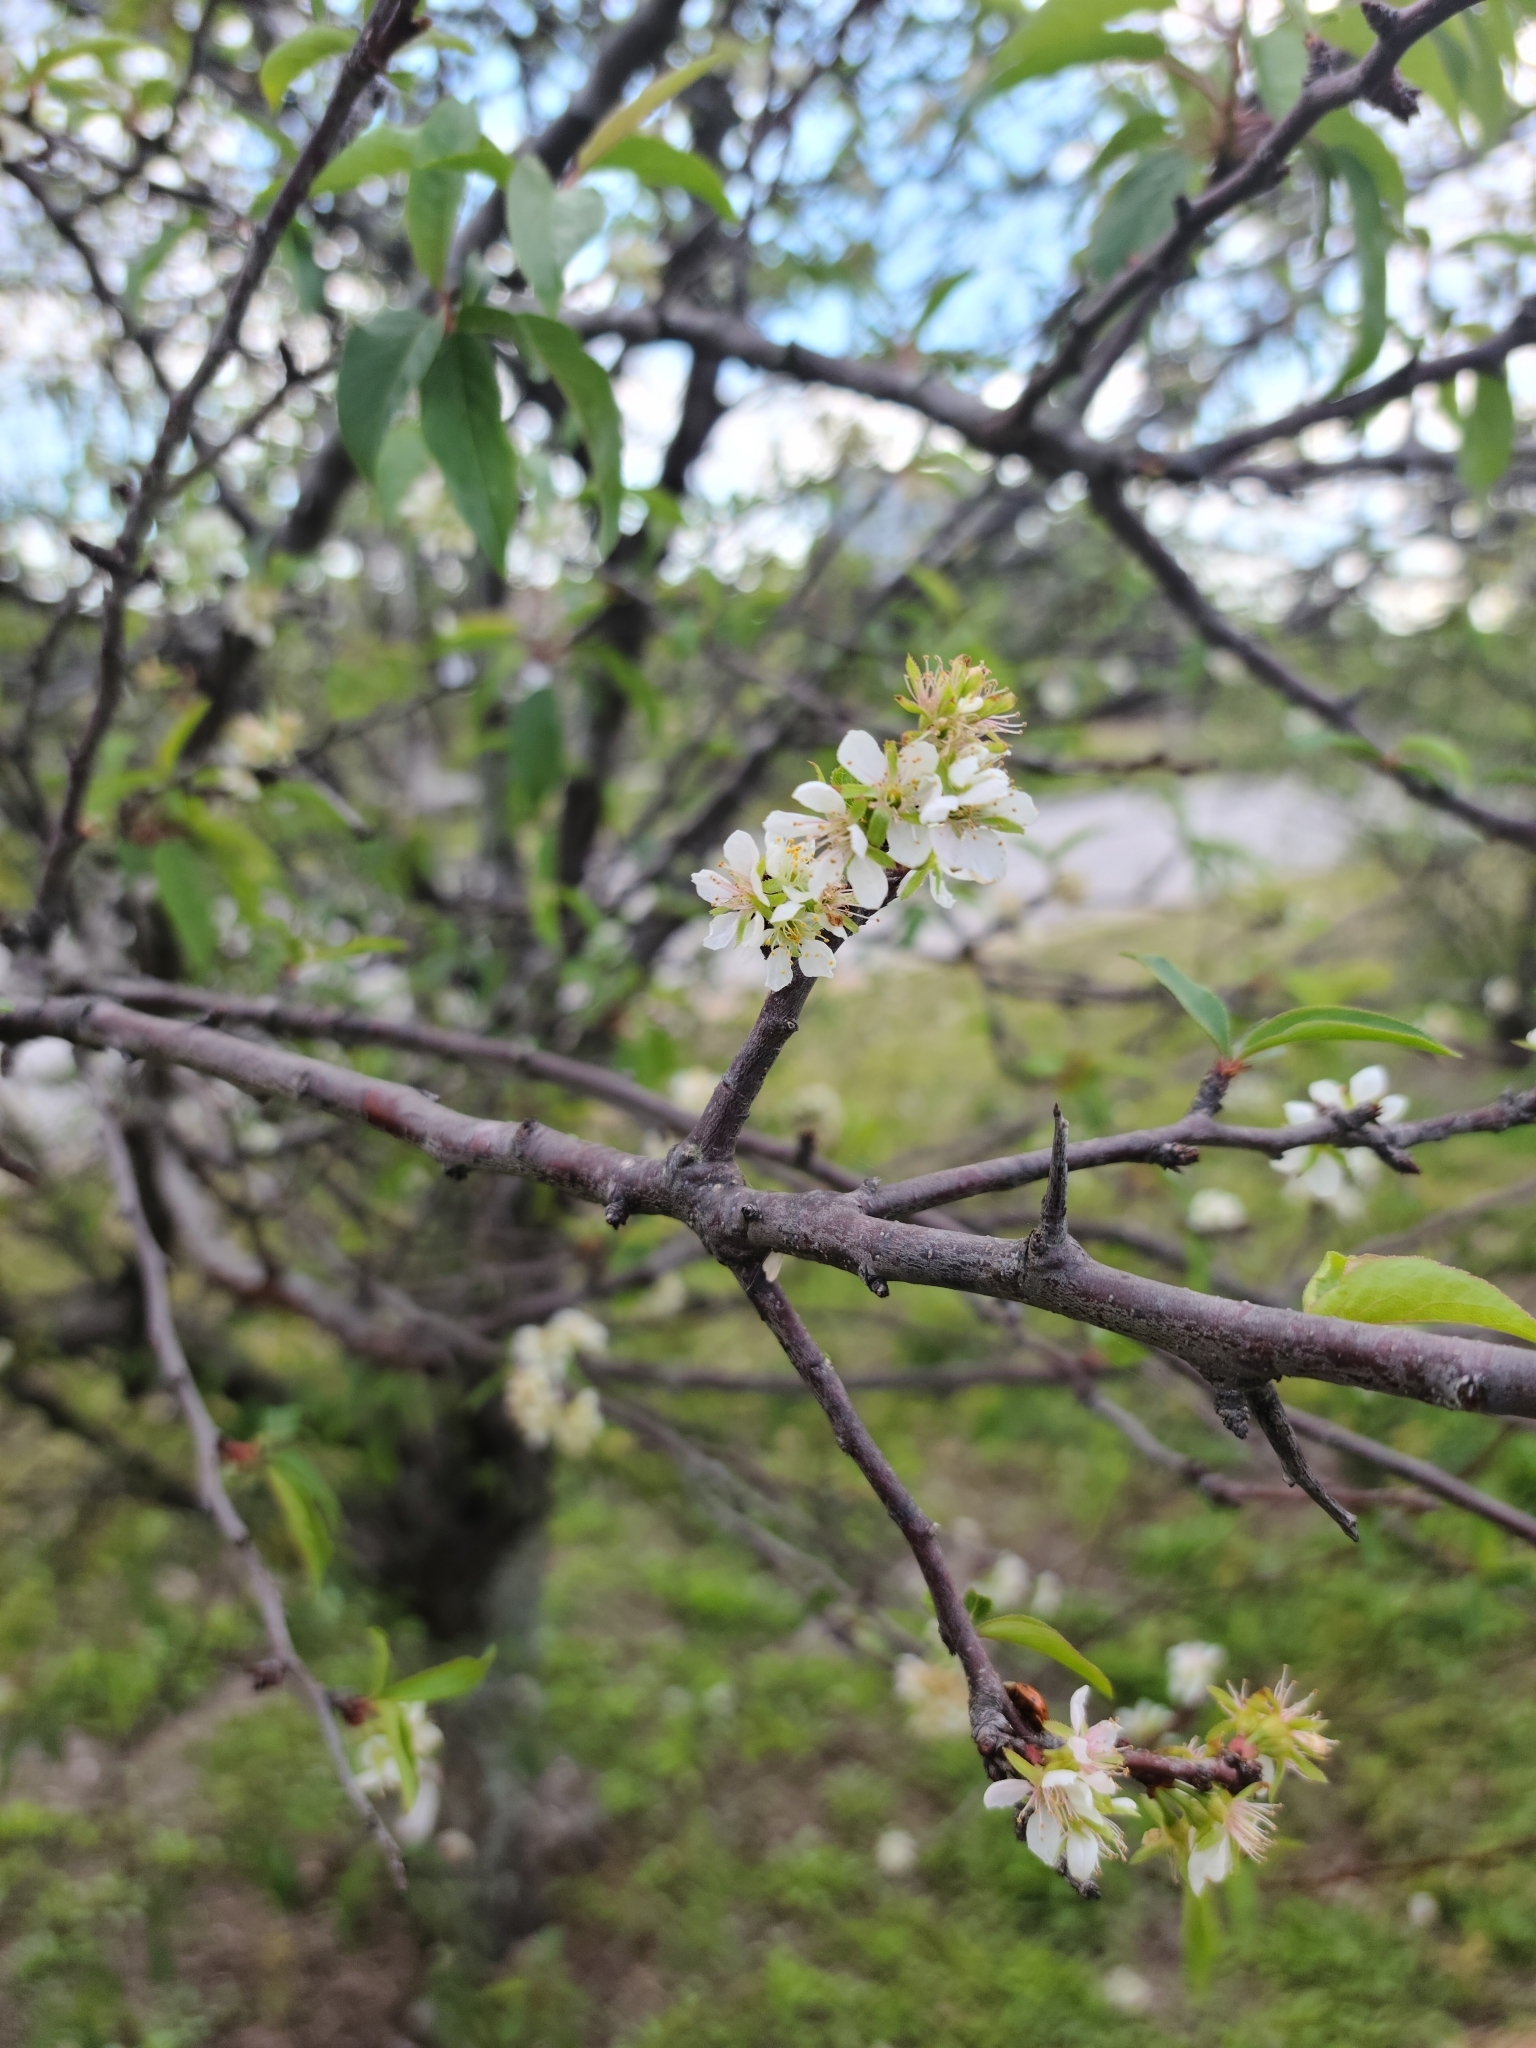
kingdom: Plantae
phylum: Tracheophyta
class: Magnoliopsida
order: Rosales
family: Rosaceae
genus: Prunus
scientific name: Prunus angustifolia
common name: Cherokee plum
